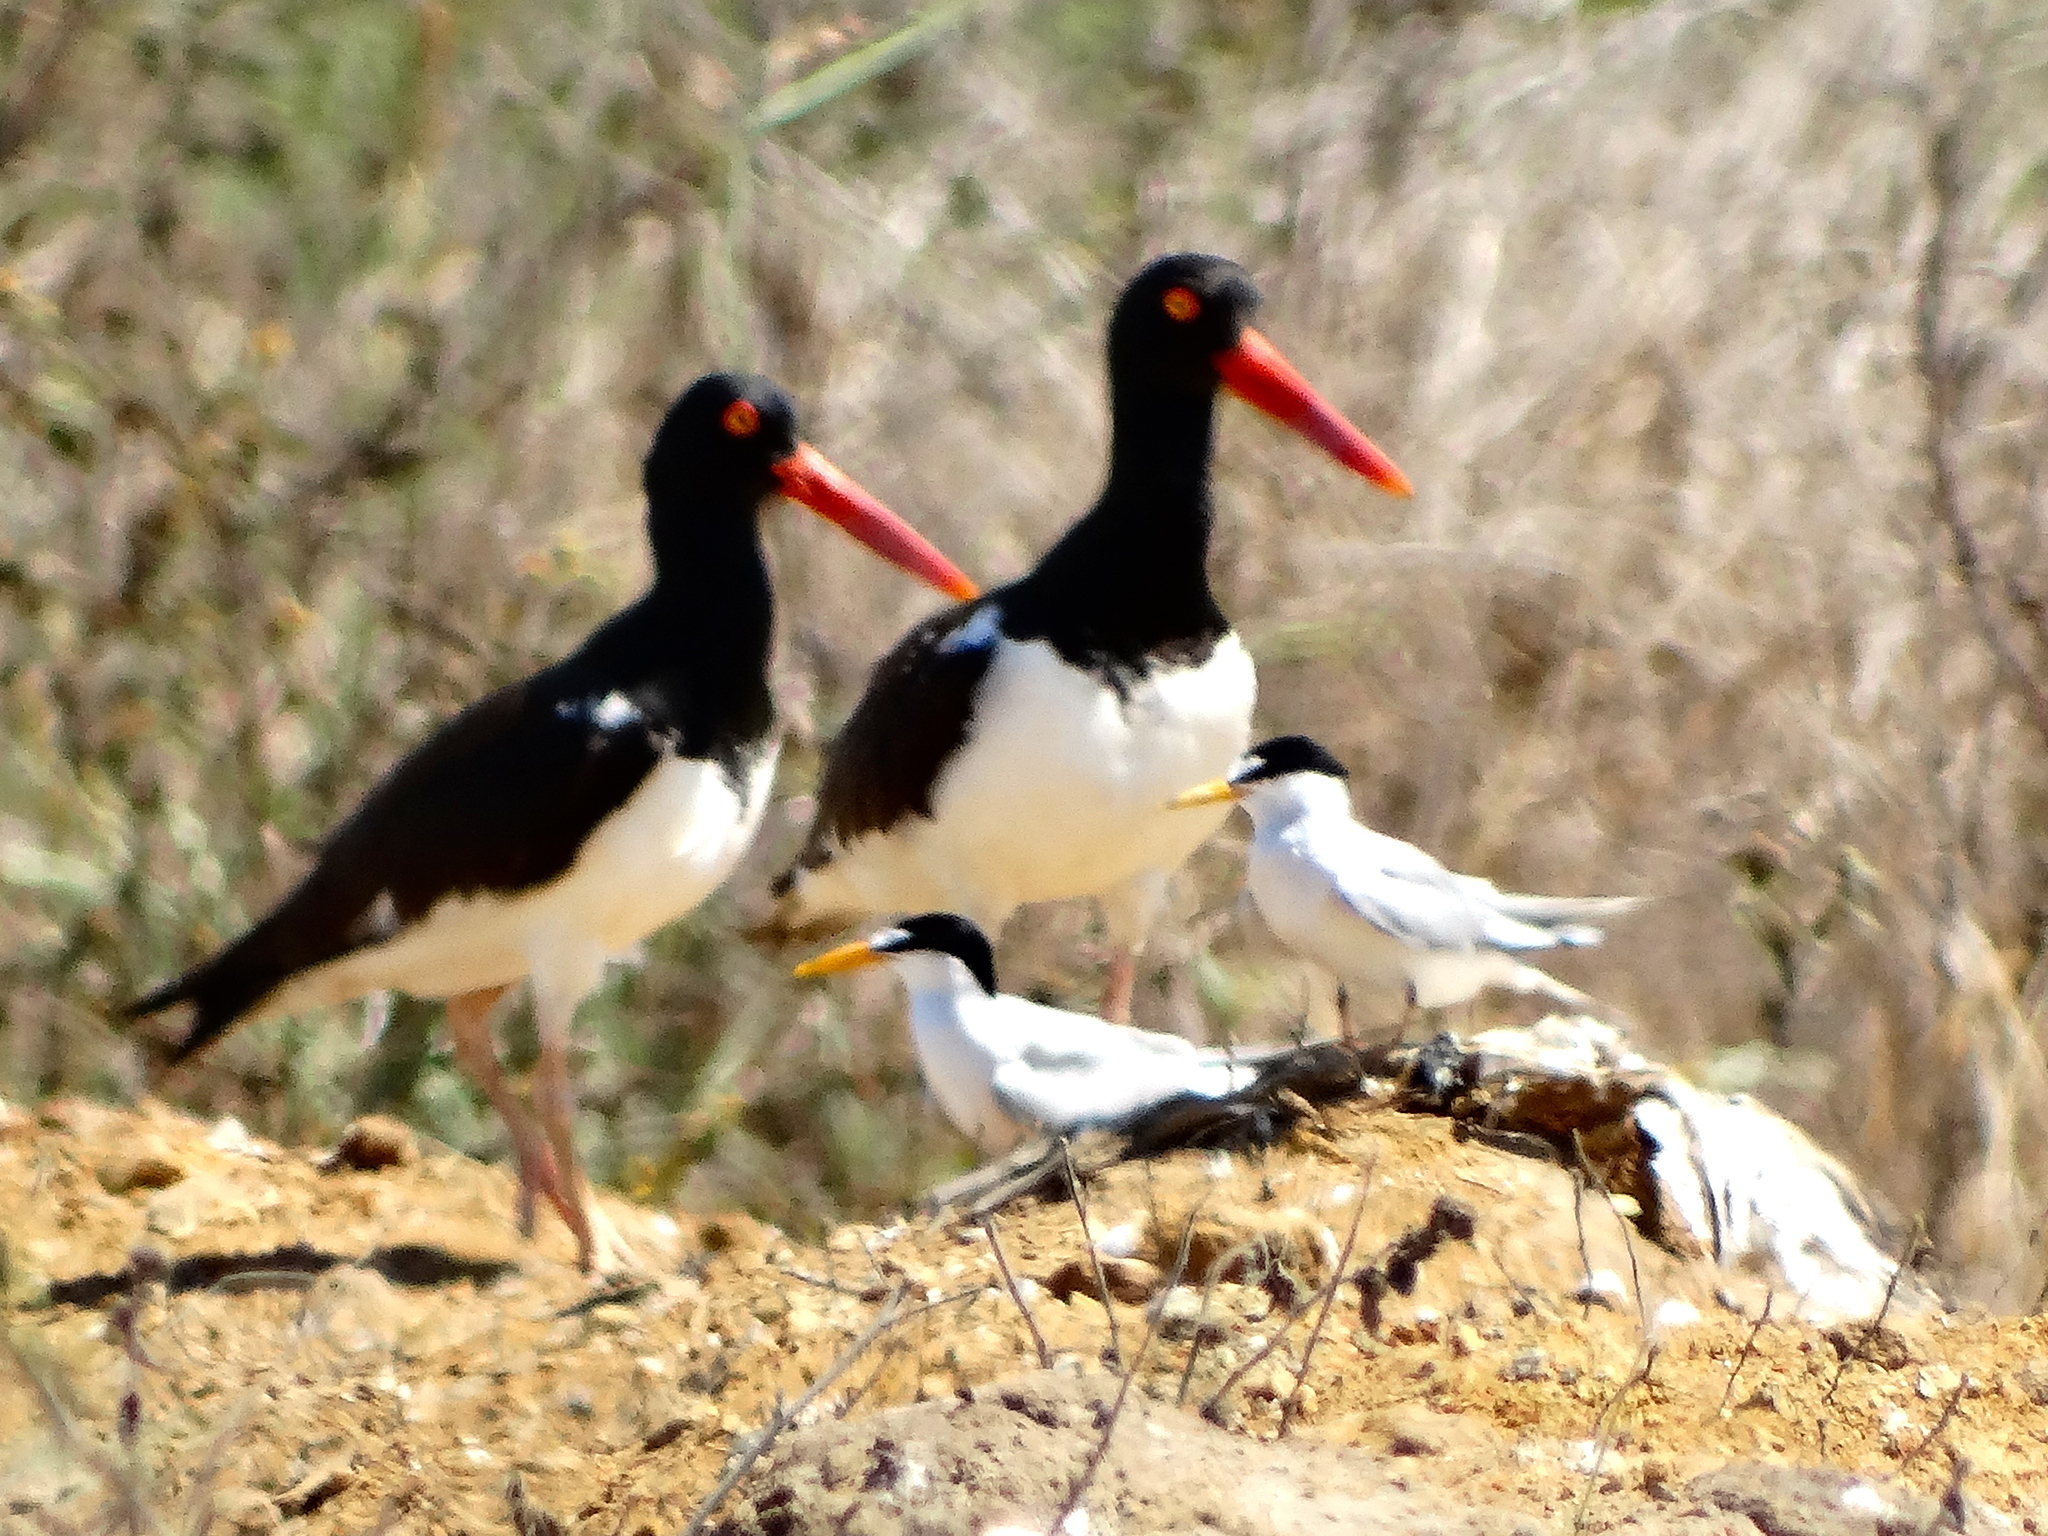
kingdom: Animalia
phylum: Chordata
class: Aves
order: Charadriiformes
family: Haematopodidae
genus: Haematopus
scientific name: Haematopus palliatus
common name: American oystercatcher
